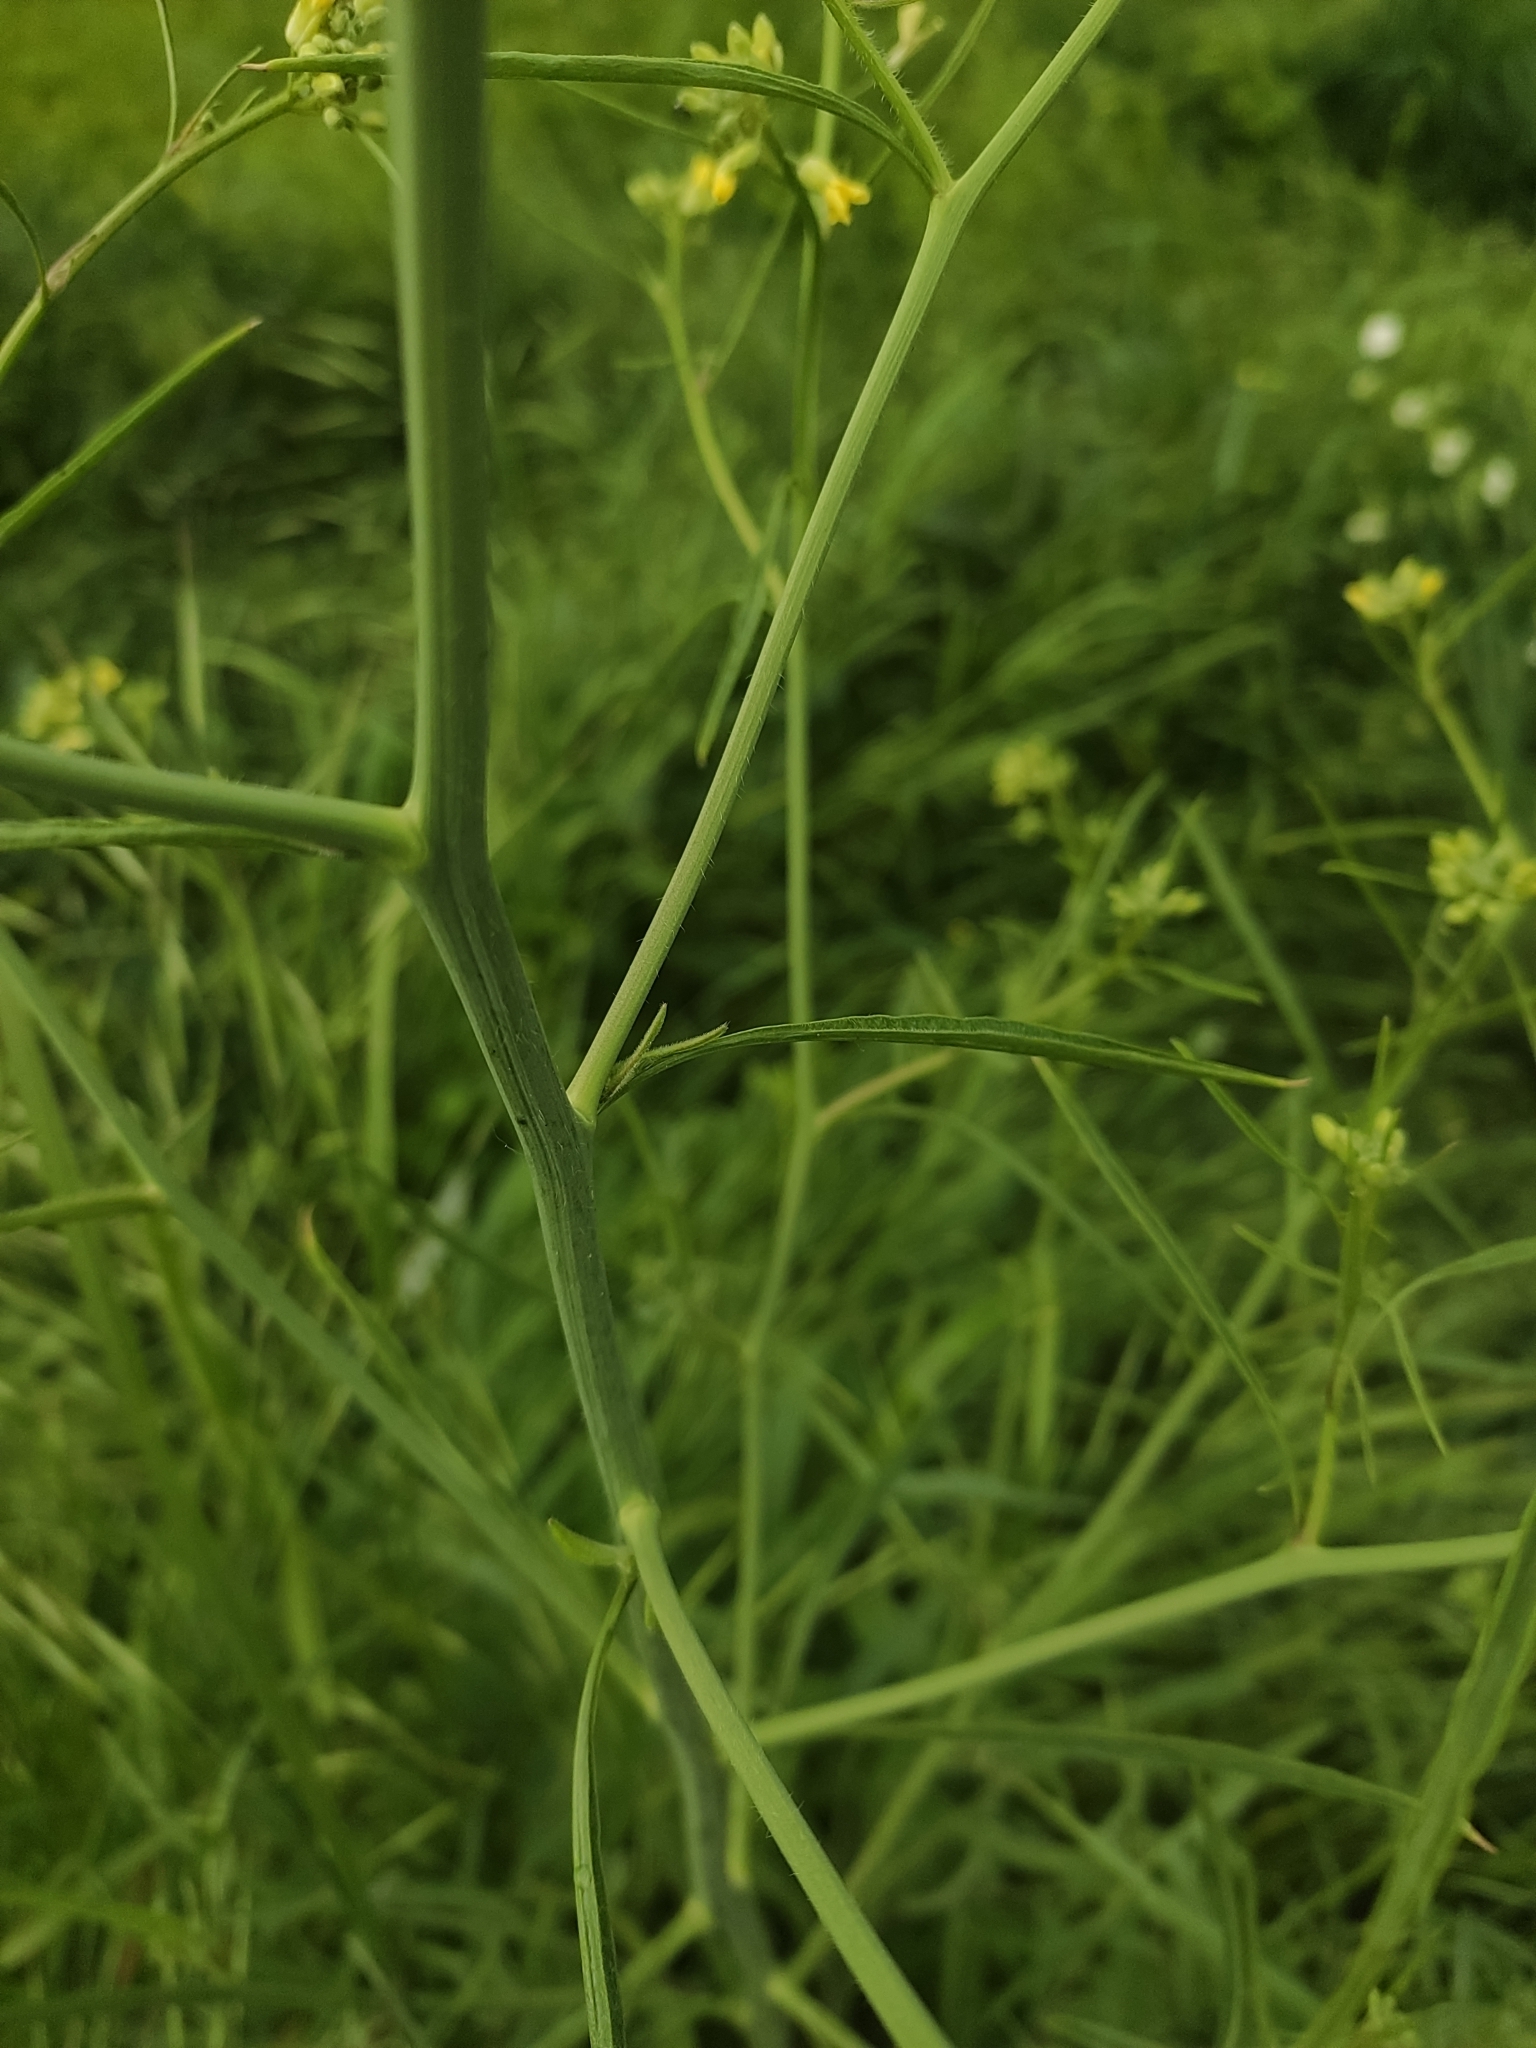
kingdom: Plantae
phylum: Tracheophyta
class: Magnoliopsida
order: Brassicales
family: Brassicaceae
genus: Sisymbrium
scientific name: Sisymbrium altissimum
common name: Tall rocket
